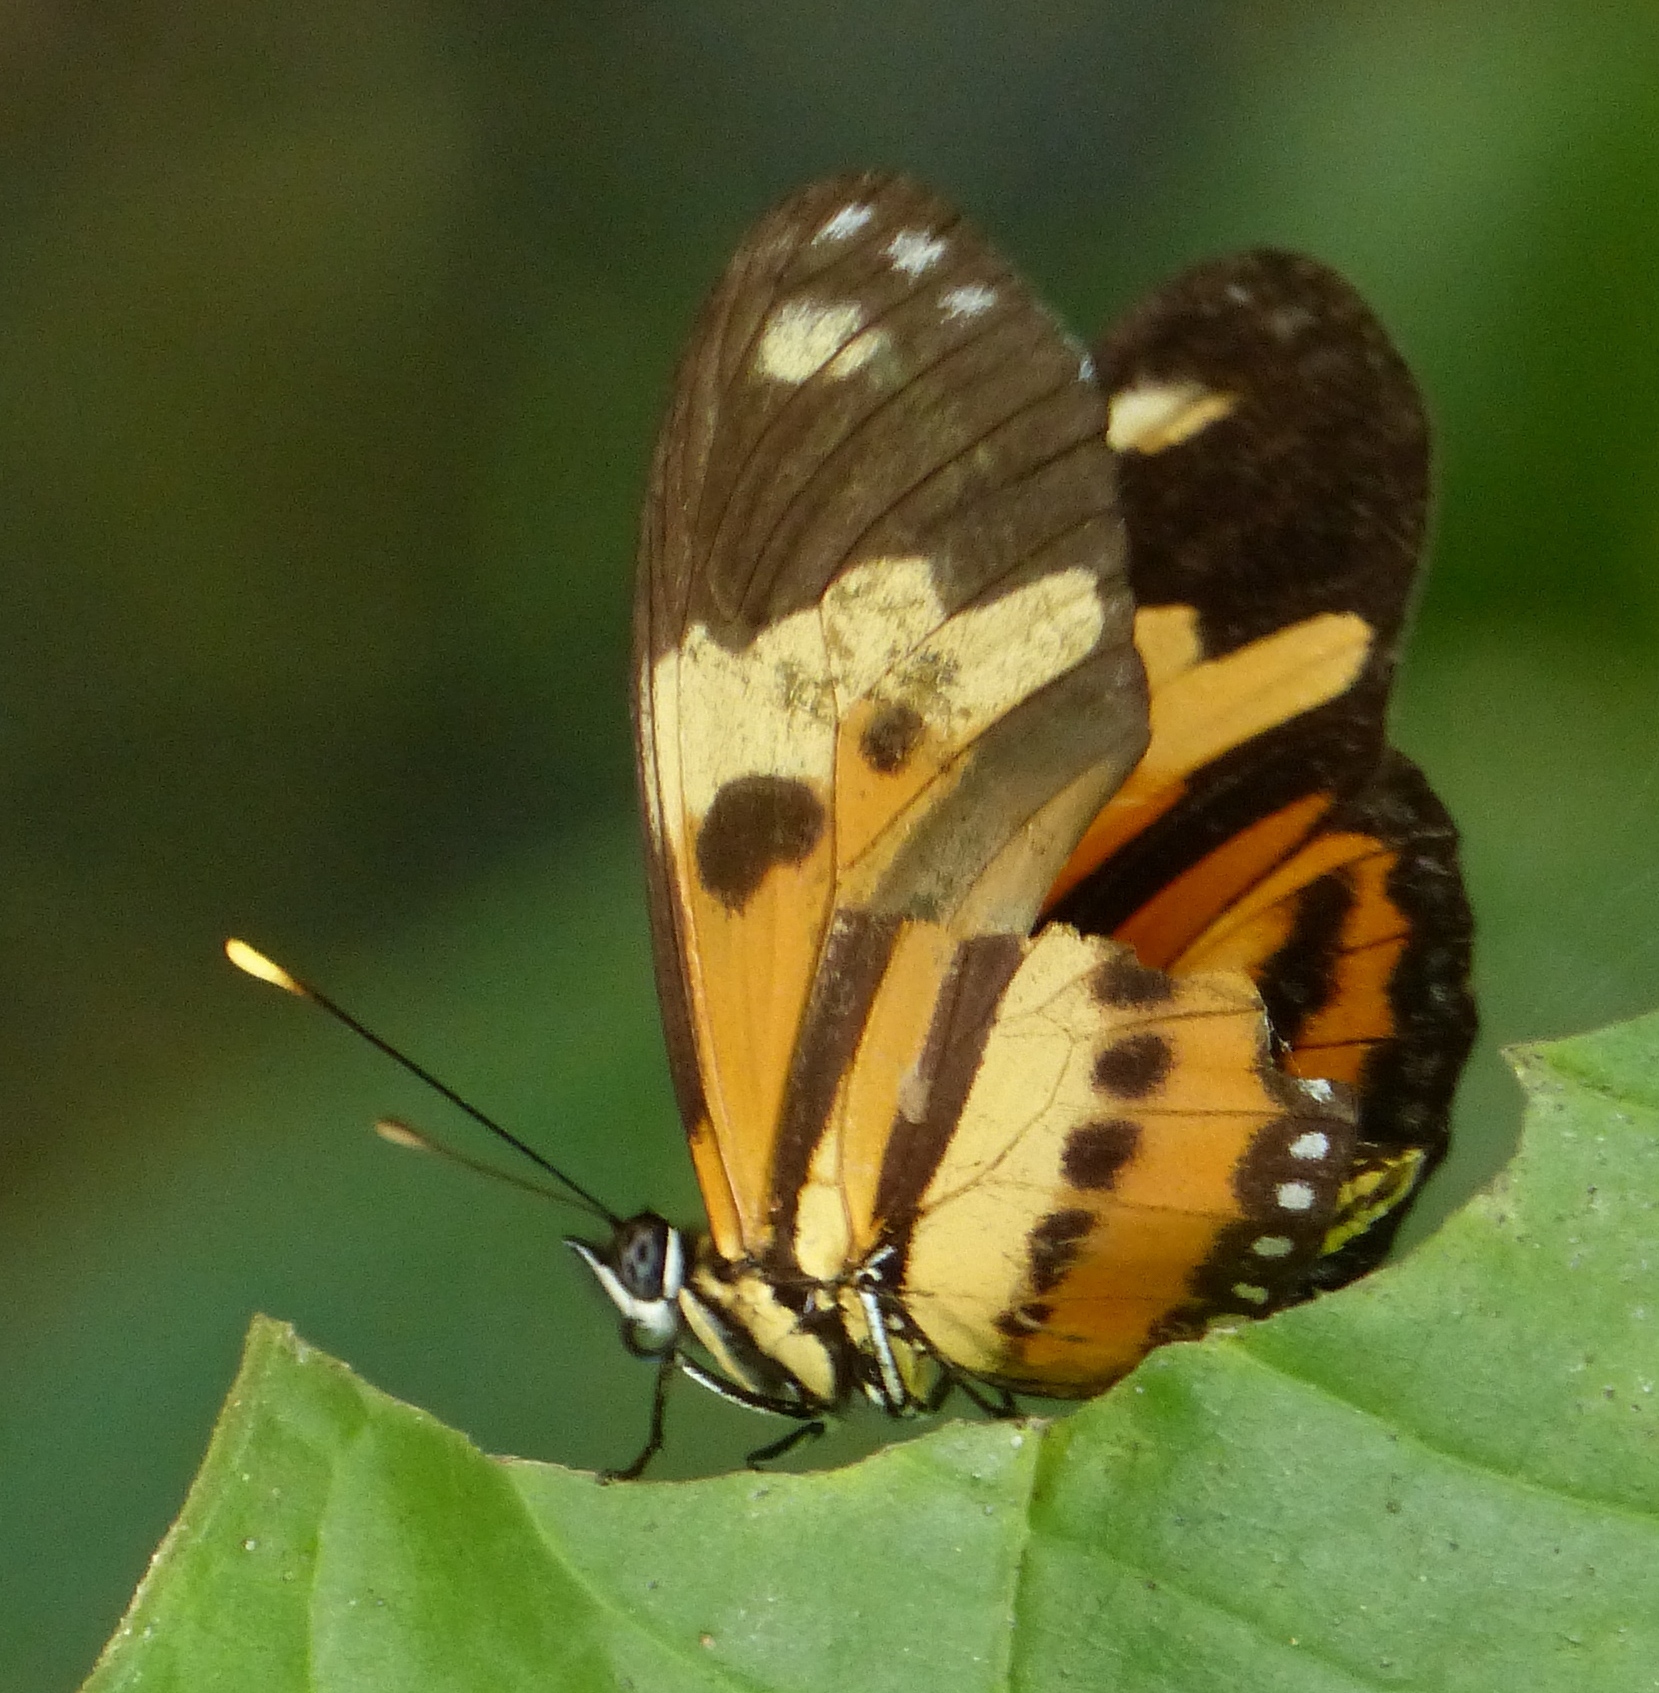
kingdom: Animalia
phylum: Arthropoda
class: Insecta
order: Lepidoptera
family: Nymphalidae
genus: Eueides
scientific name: Eueides isabella
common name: Isabella's longwing
